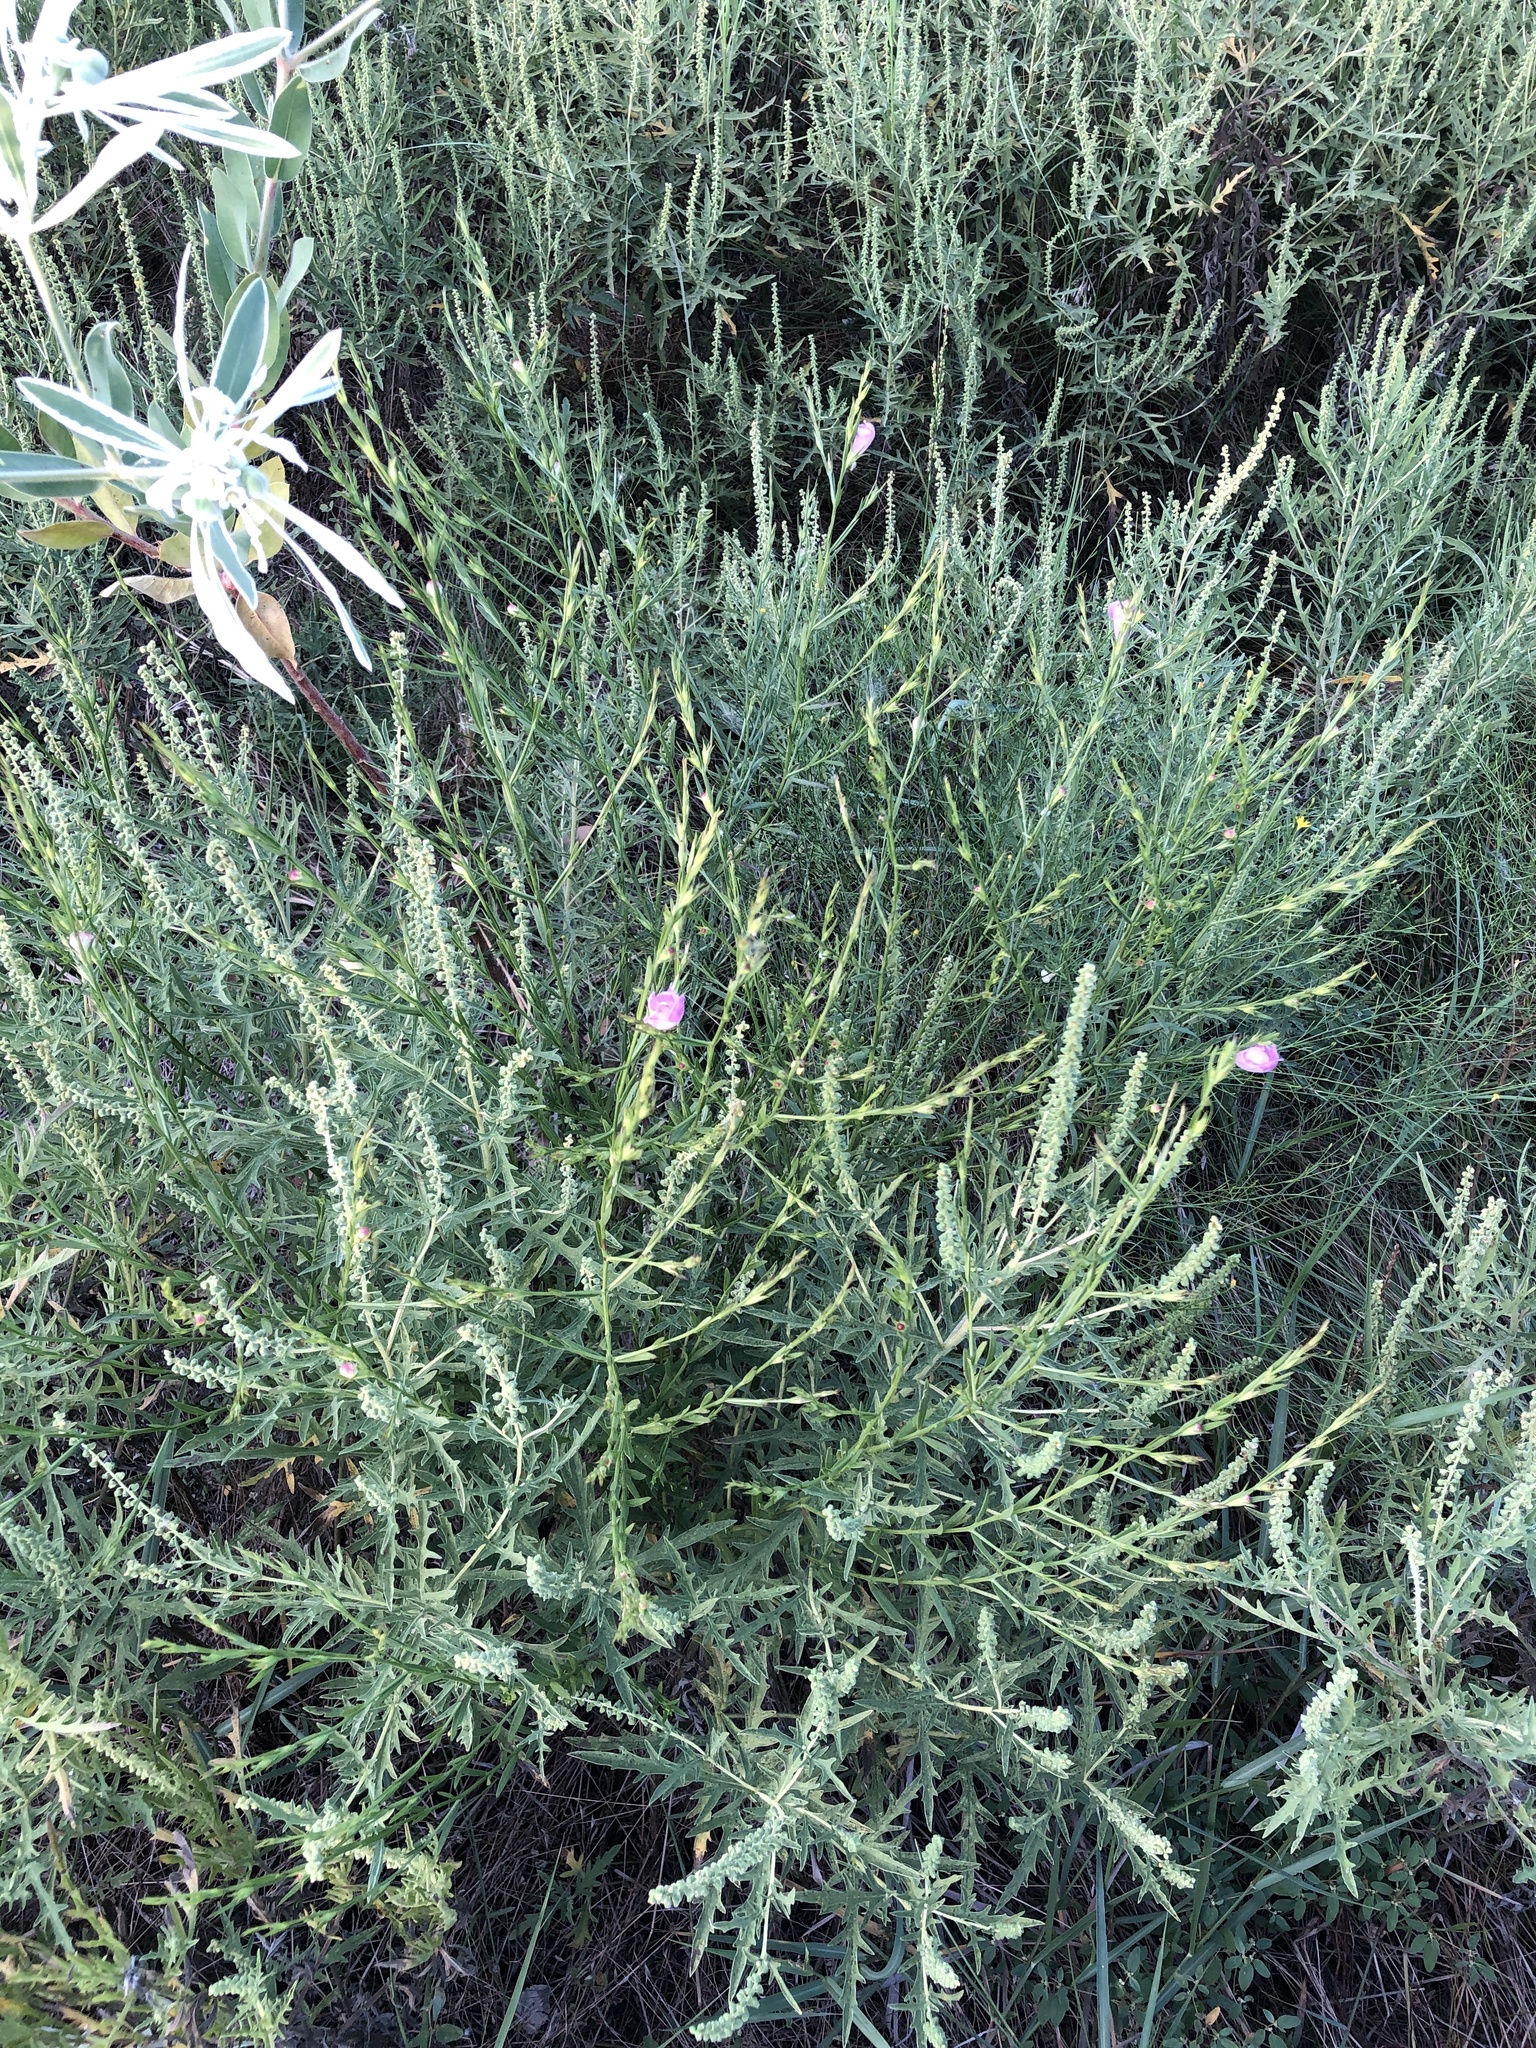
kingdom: Plantae
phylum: Tracheophyta
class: Magnoliopsida
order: Lamiales
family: Orobanchaceae
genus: Agalinis
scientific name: Agalinis heterophylla
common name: Prairie agalinis
